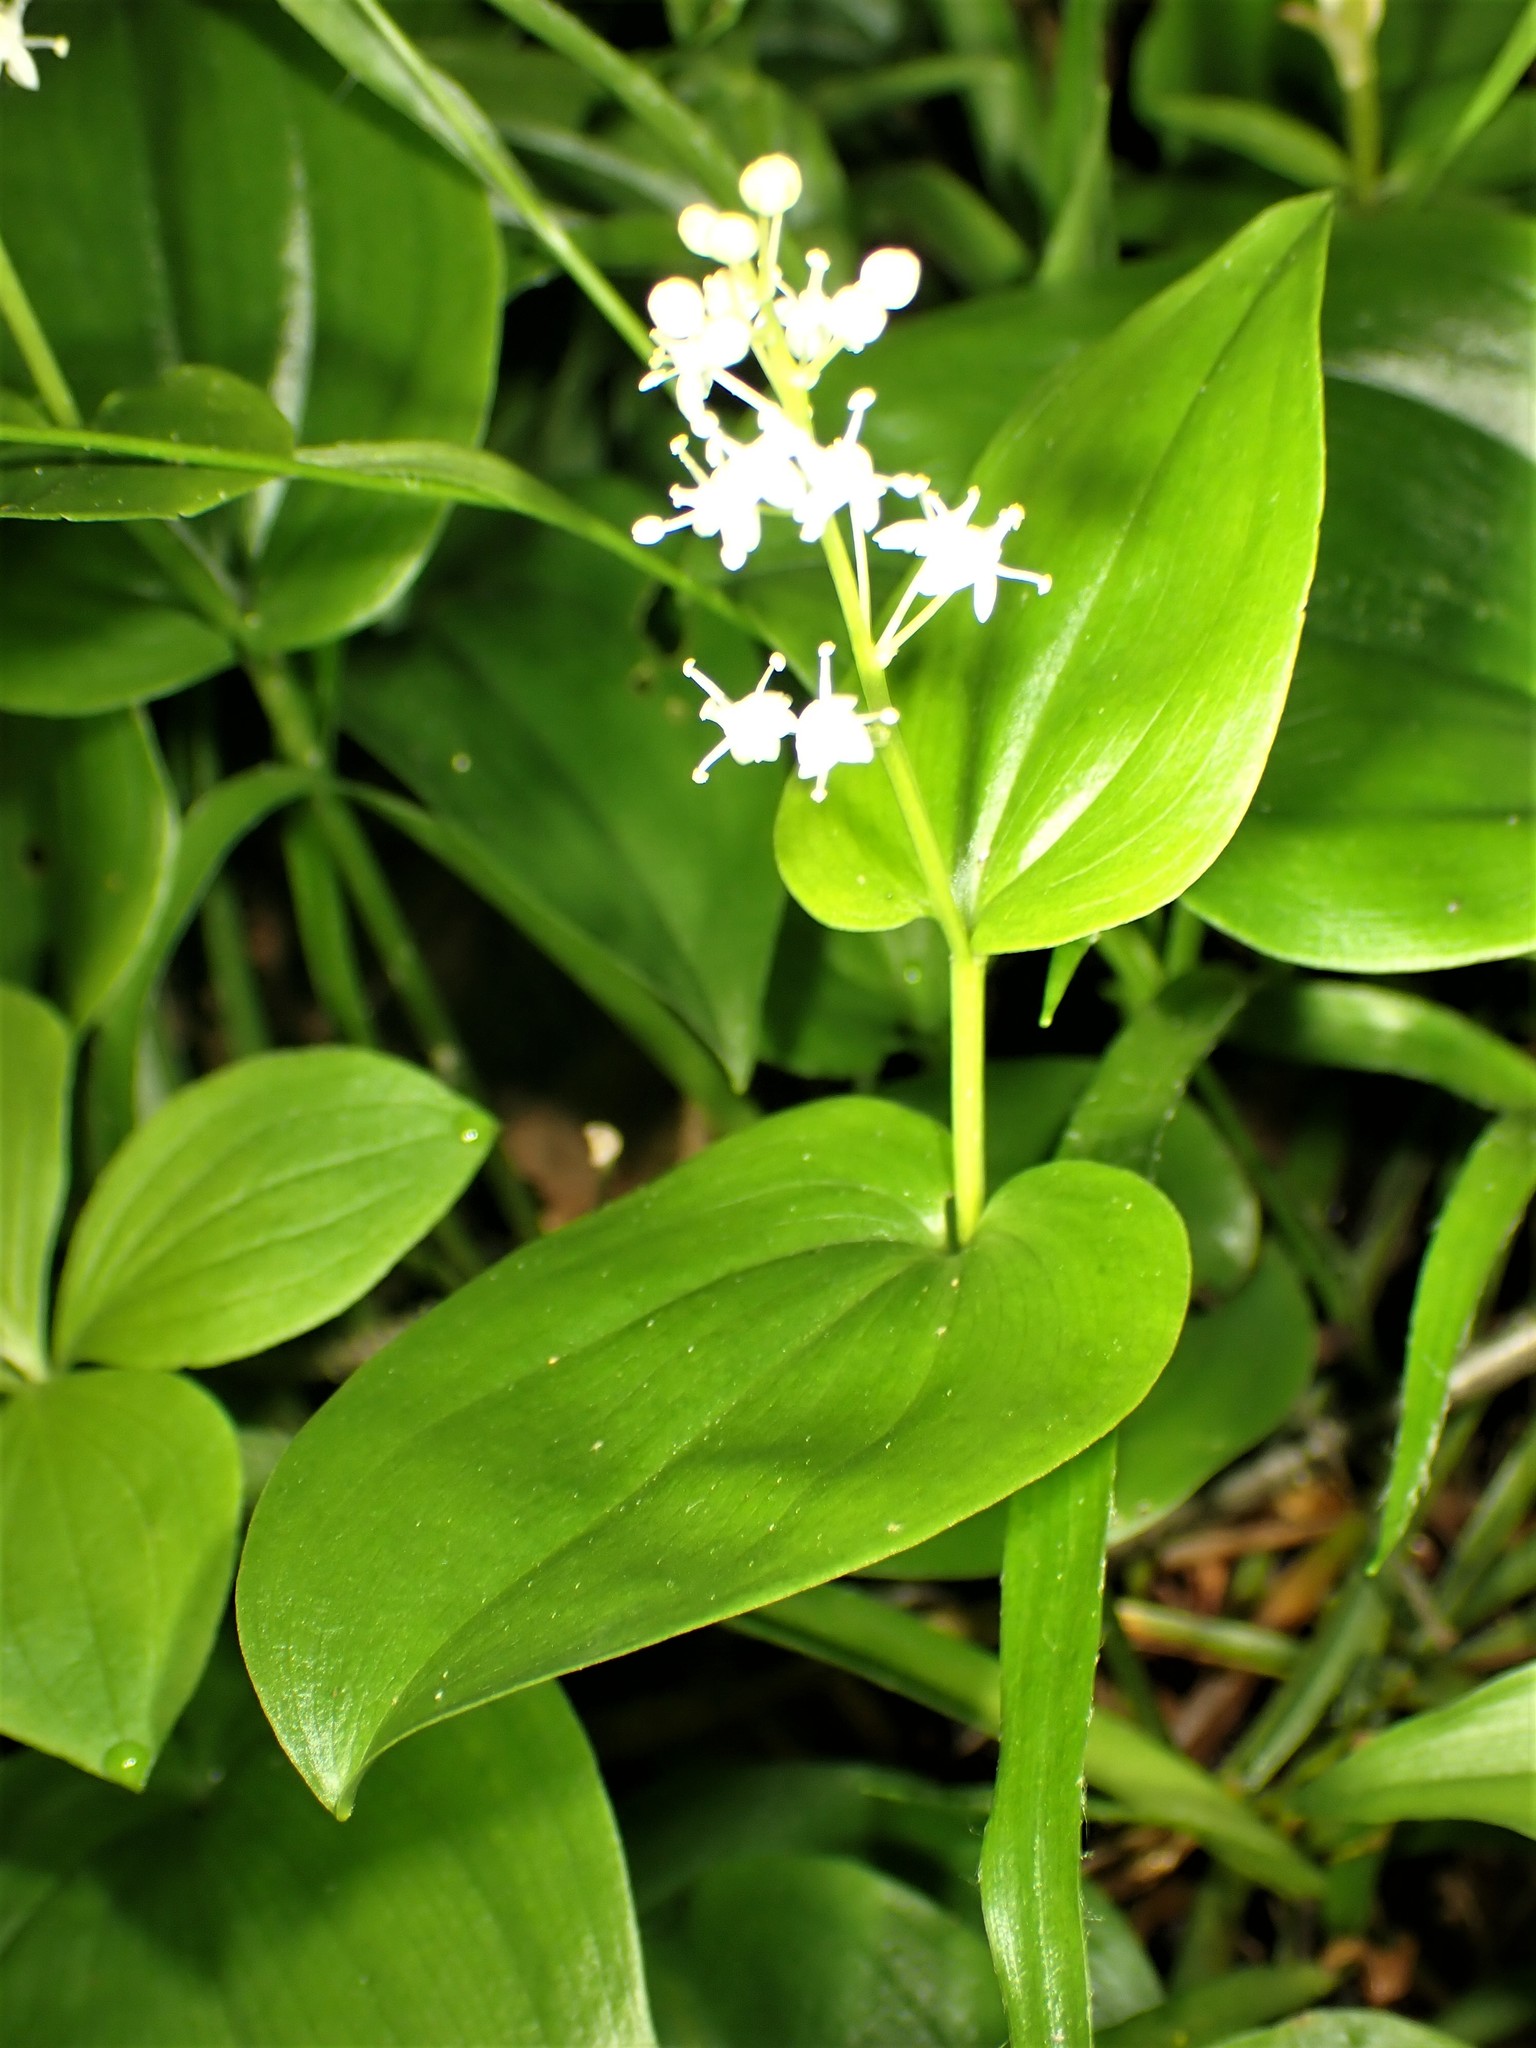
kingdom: Plantae
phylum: Tracheophyta
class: Liliopsida
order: Asparagales
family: Asparagaceae
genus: Maianthemum
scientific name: Maianthemum canadense
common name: False lily-of-the-valley
